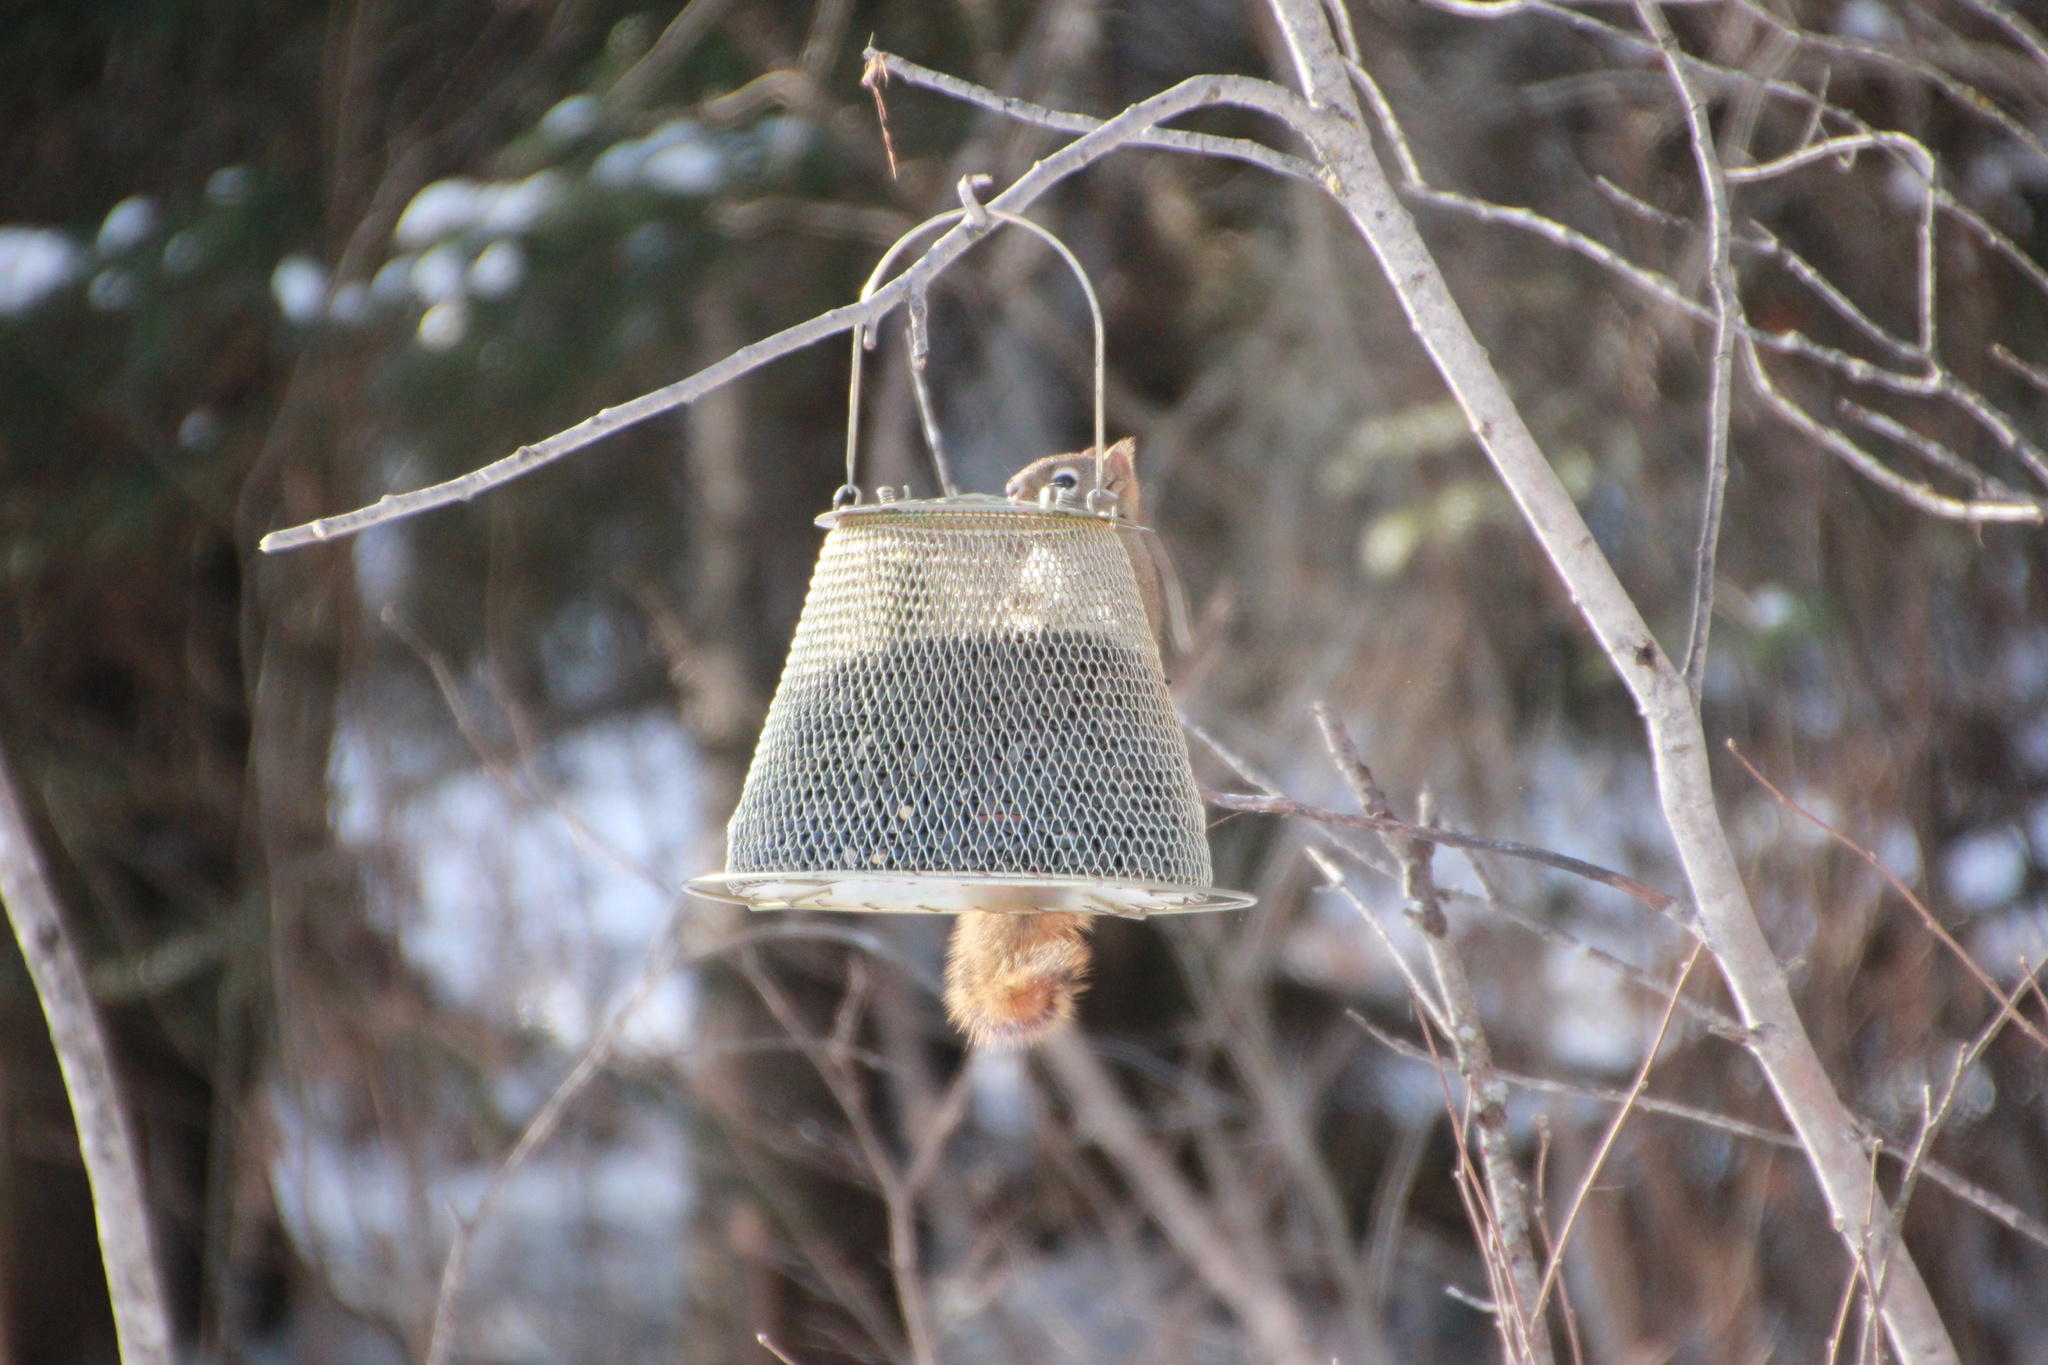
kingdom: Animalia
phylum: Chordata
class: Mammalia
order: Rodentia
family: Sciuridae
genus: Tamiasciurus
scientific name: Tamiasciurus hudsonicus
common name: Red squirrel
